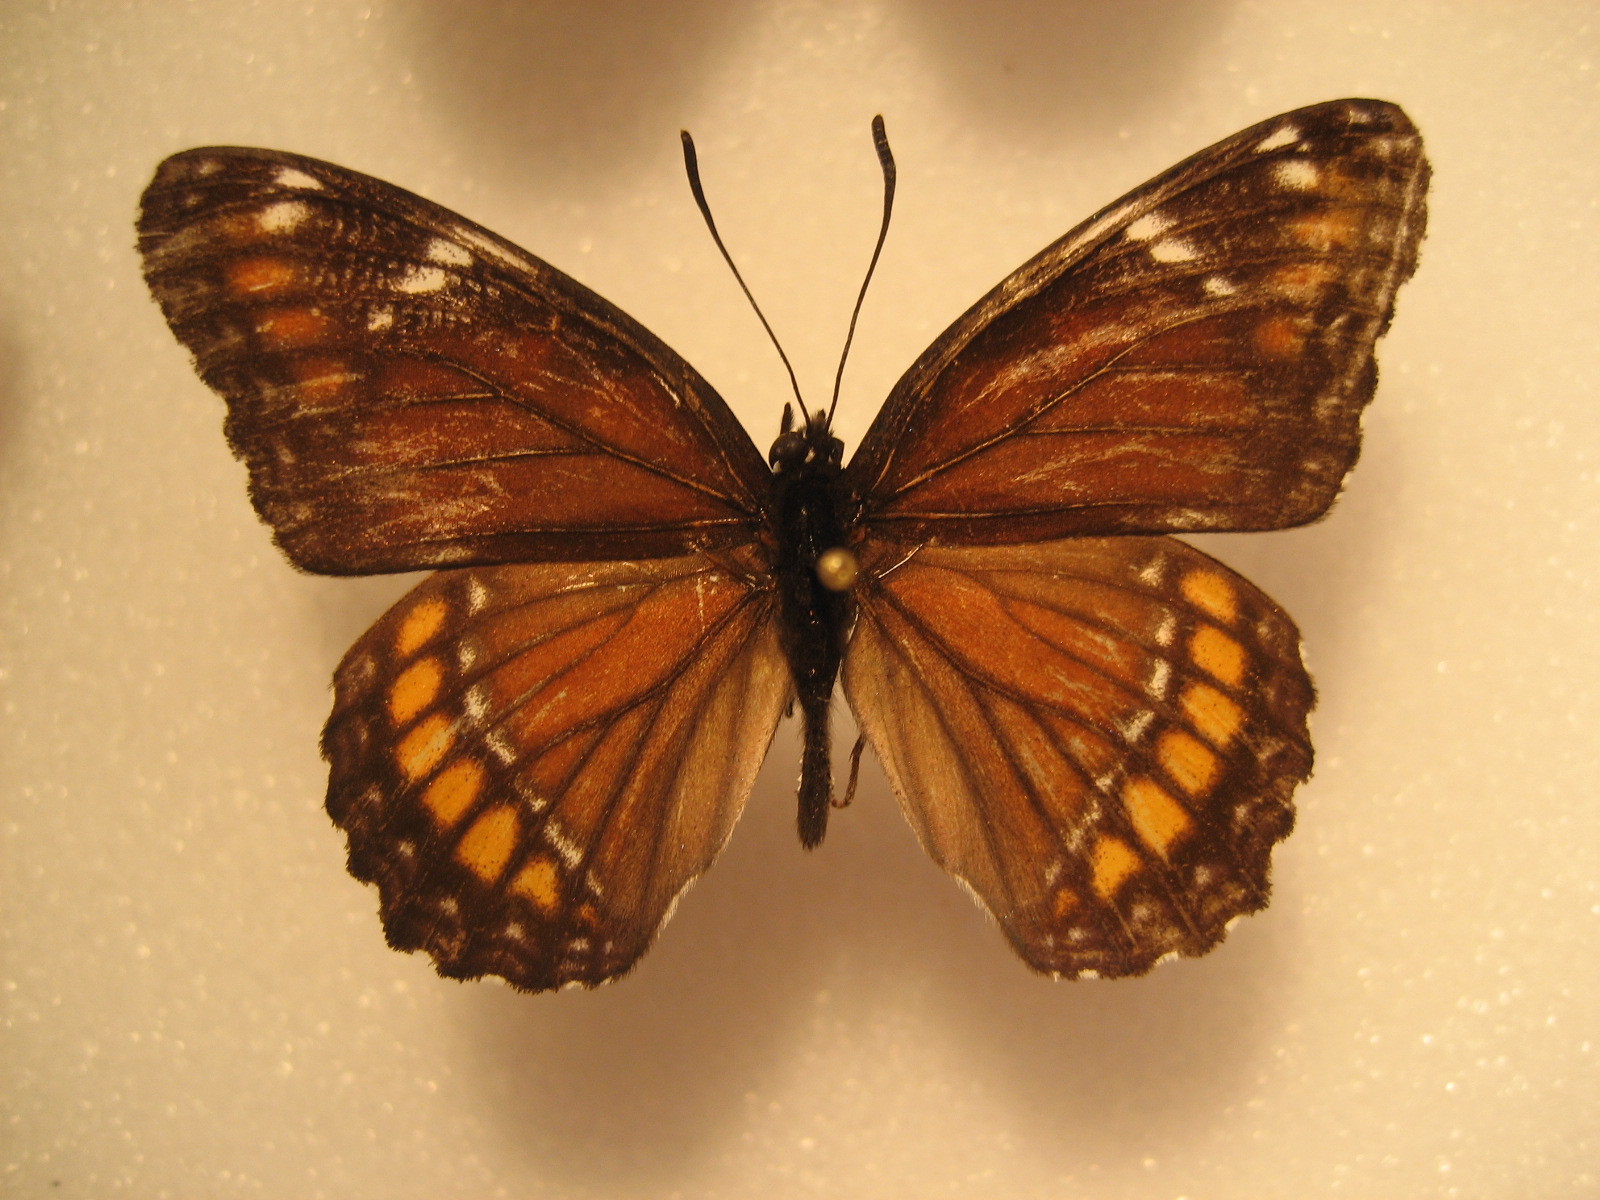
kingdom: Animalia
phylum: Arthropoda
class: Insecta
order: Lepidoptera
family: Nymphalidae
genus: Limenitis
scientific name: Limenitis
